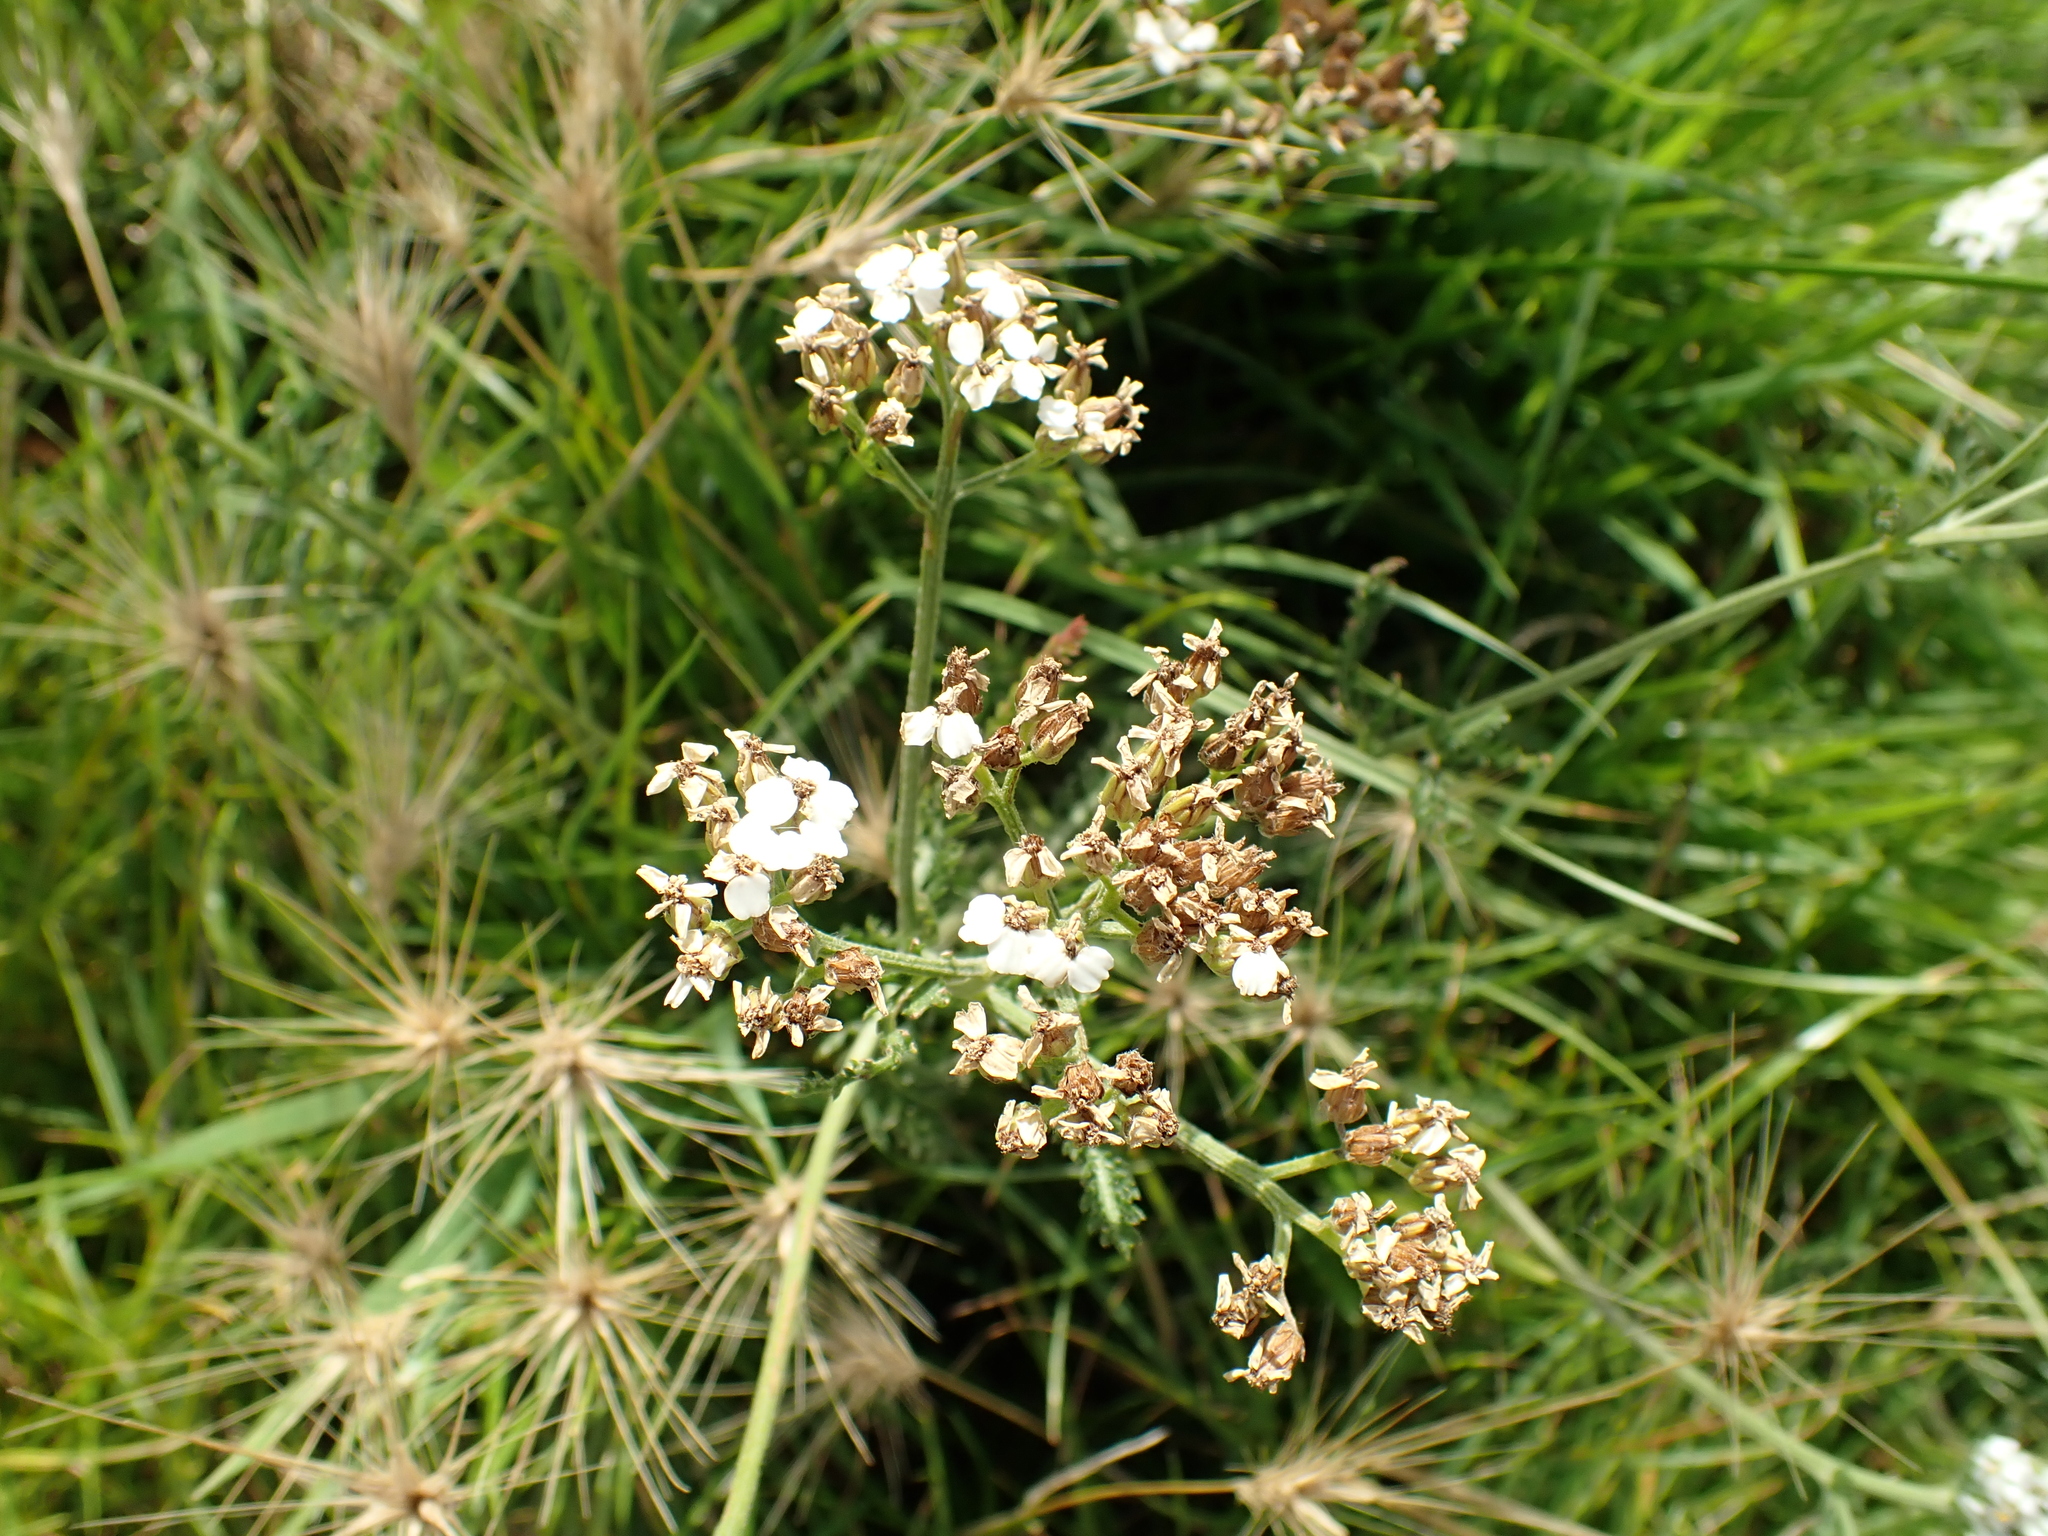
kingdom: Plantae
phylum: Tracheophyta
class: Magnoliopsida
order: Asterales
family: Asteraceae
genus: Achillea
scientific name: Achillea millefolium
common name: Yarrow
